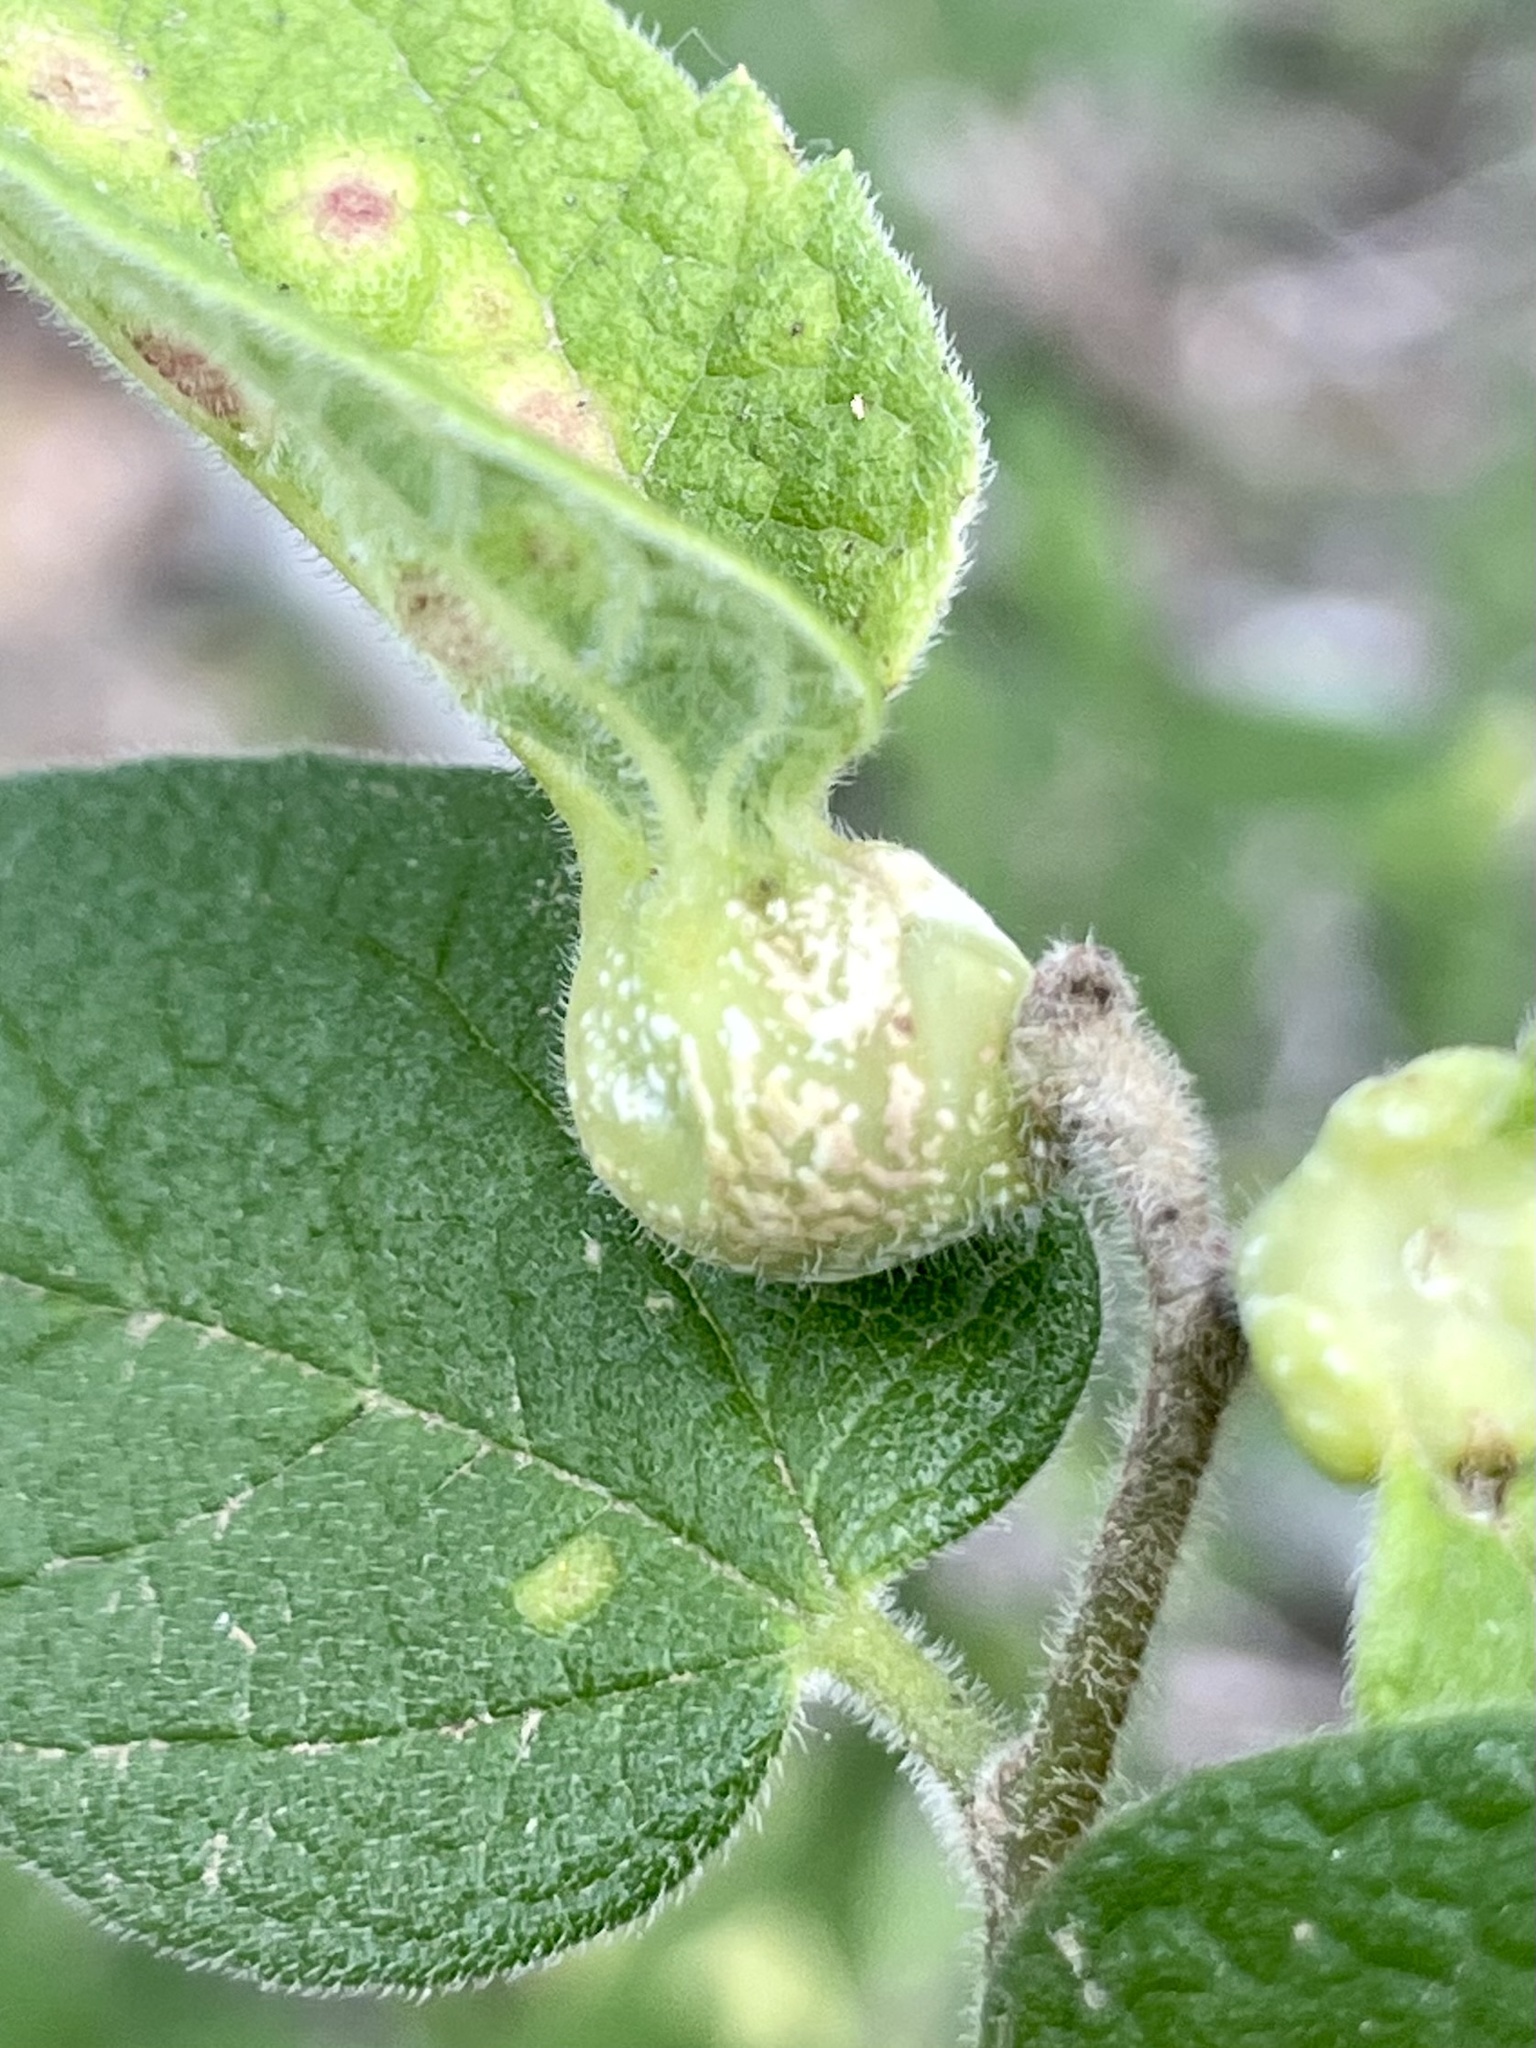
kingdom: Animalia
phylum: Arthropoda
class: Insecta
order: Hemiptera
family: Aphalaridae
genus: Pachypsylla
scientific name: Pachypsylla venusta
